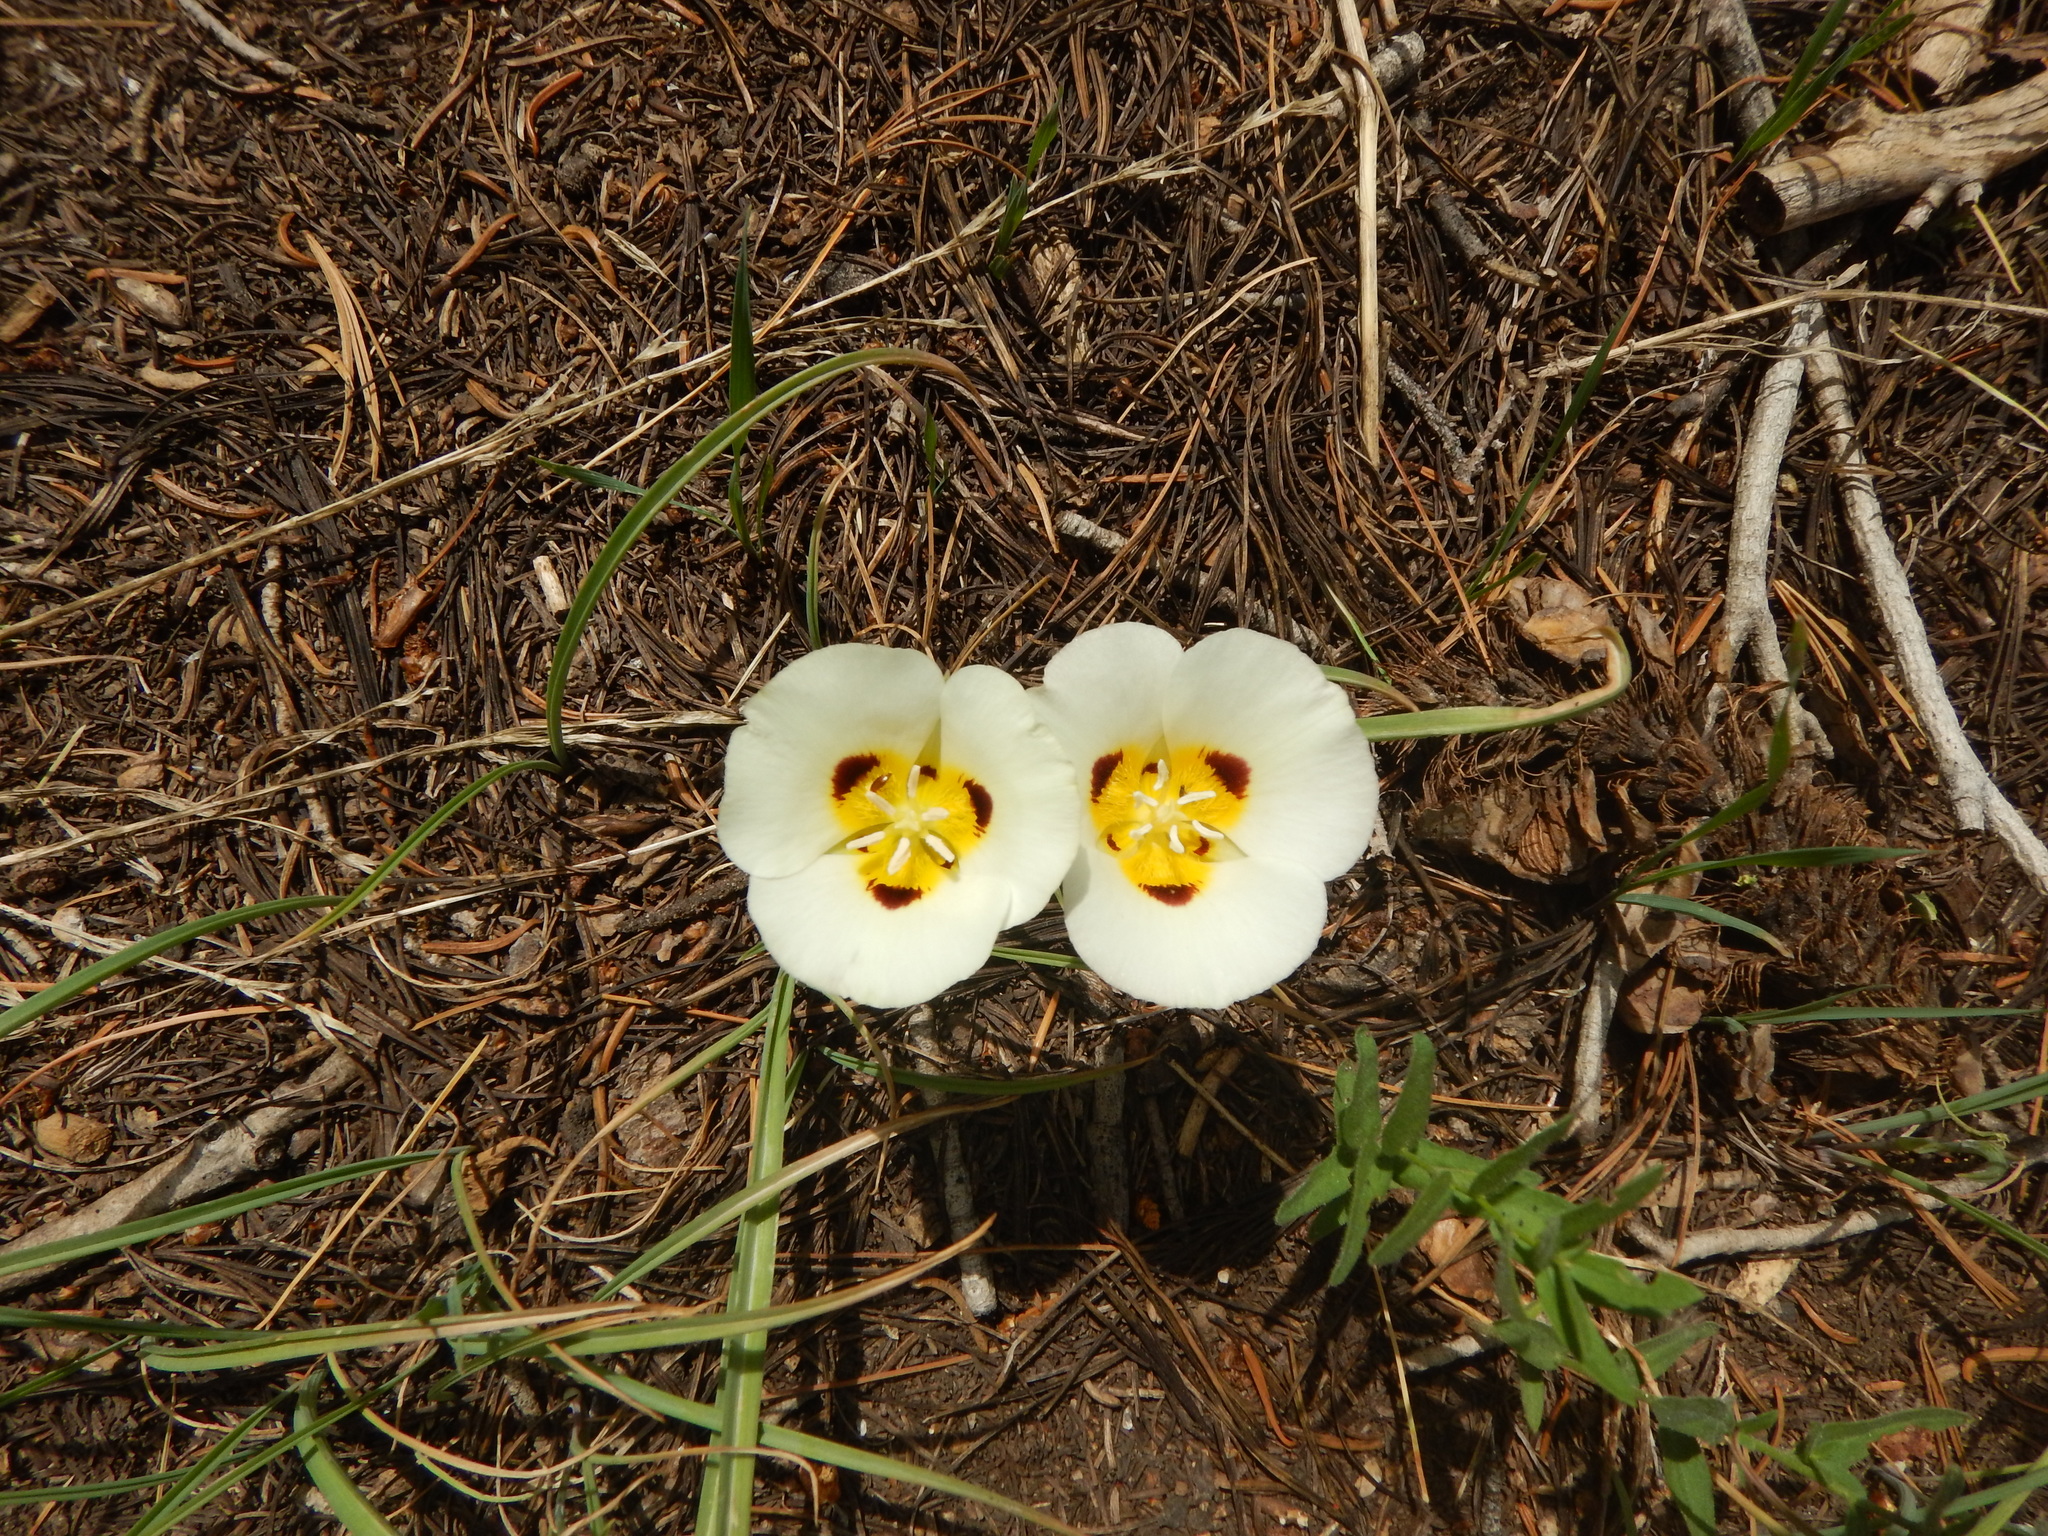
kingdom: Plantae
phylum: Tracheophyta
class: Liliopsida
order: Liliales
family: Liliaceae
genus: Calochortus
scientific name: Calochortus leichtlinii
